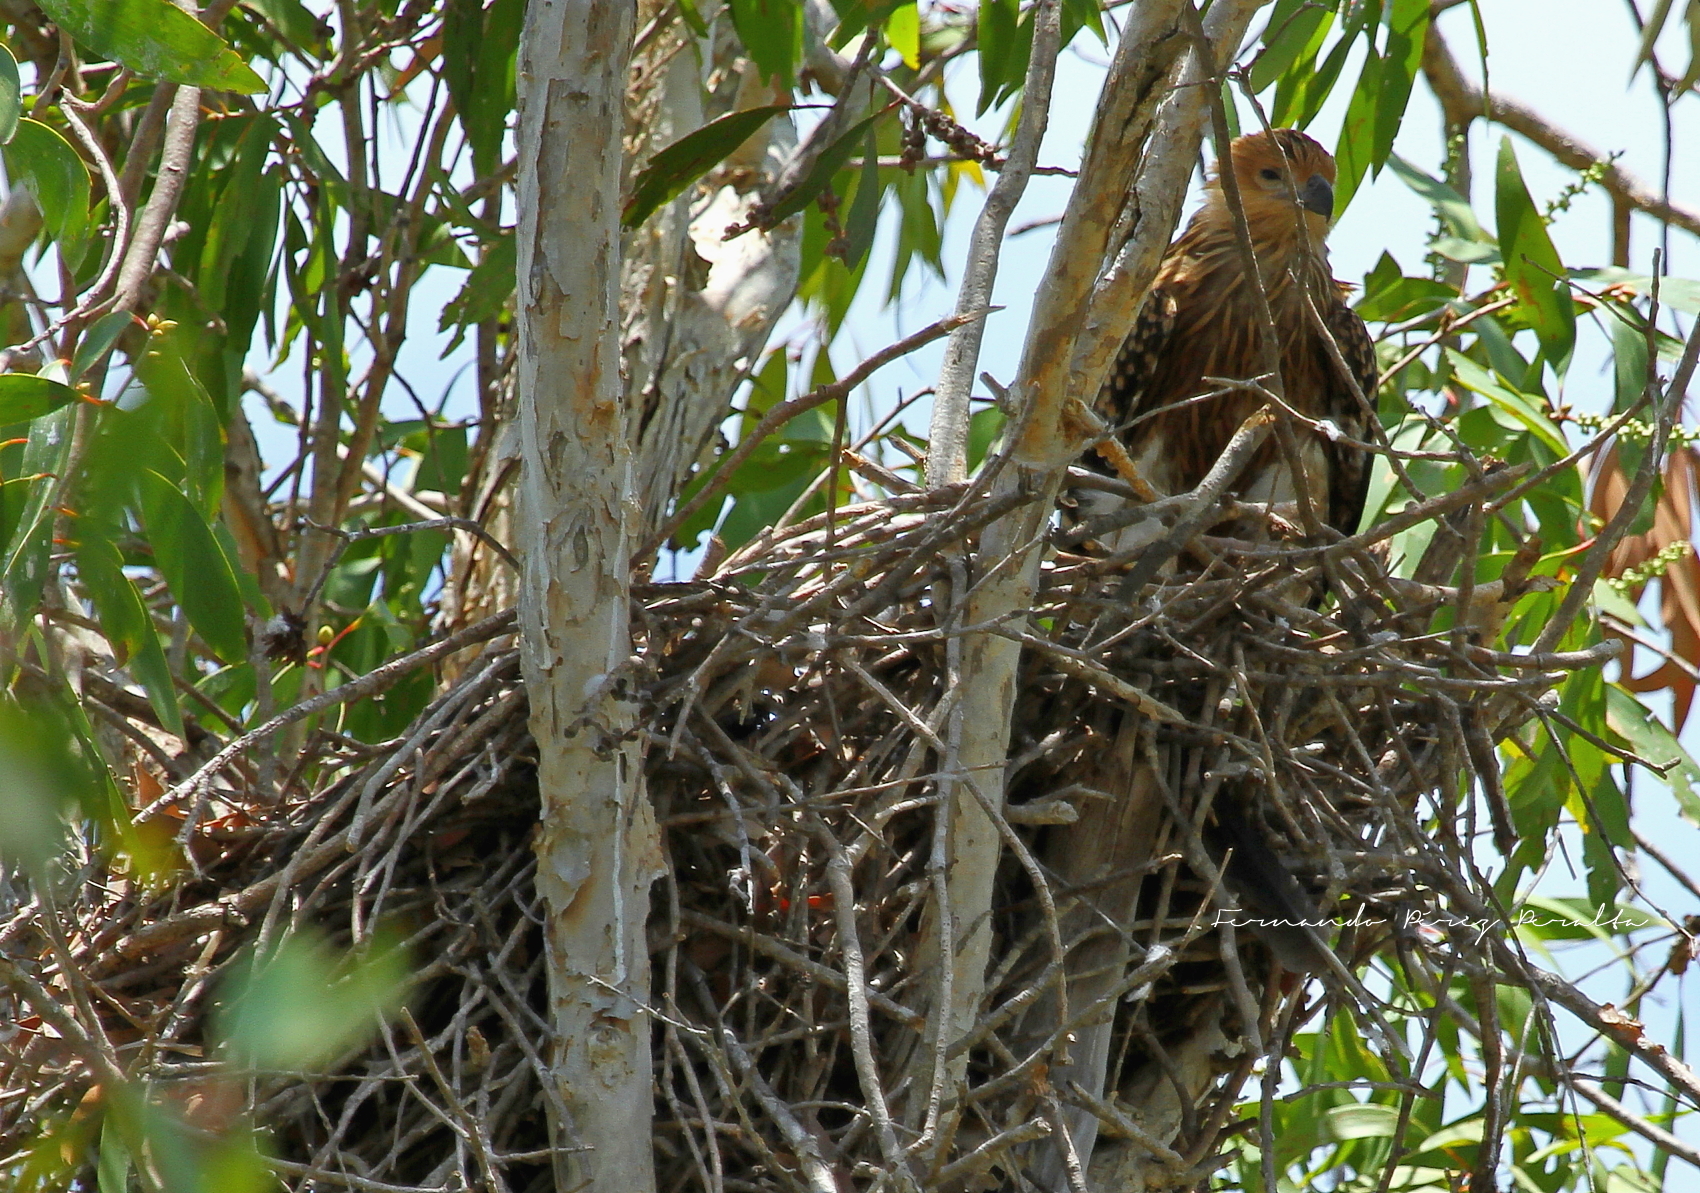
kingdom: Animalia
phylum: Chordata
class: Aves
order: Accipitriformes
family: Accipitridae
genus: Haliastur
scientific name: Haliastur sphenurus
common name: Whistling kite
